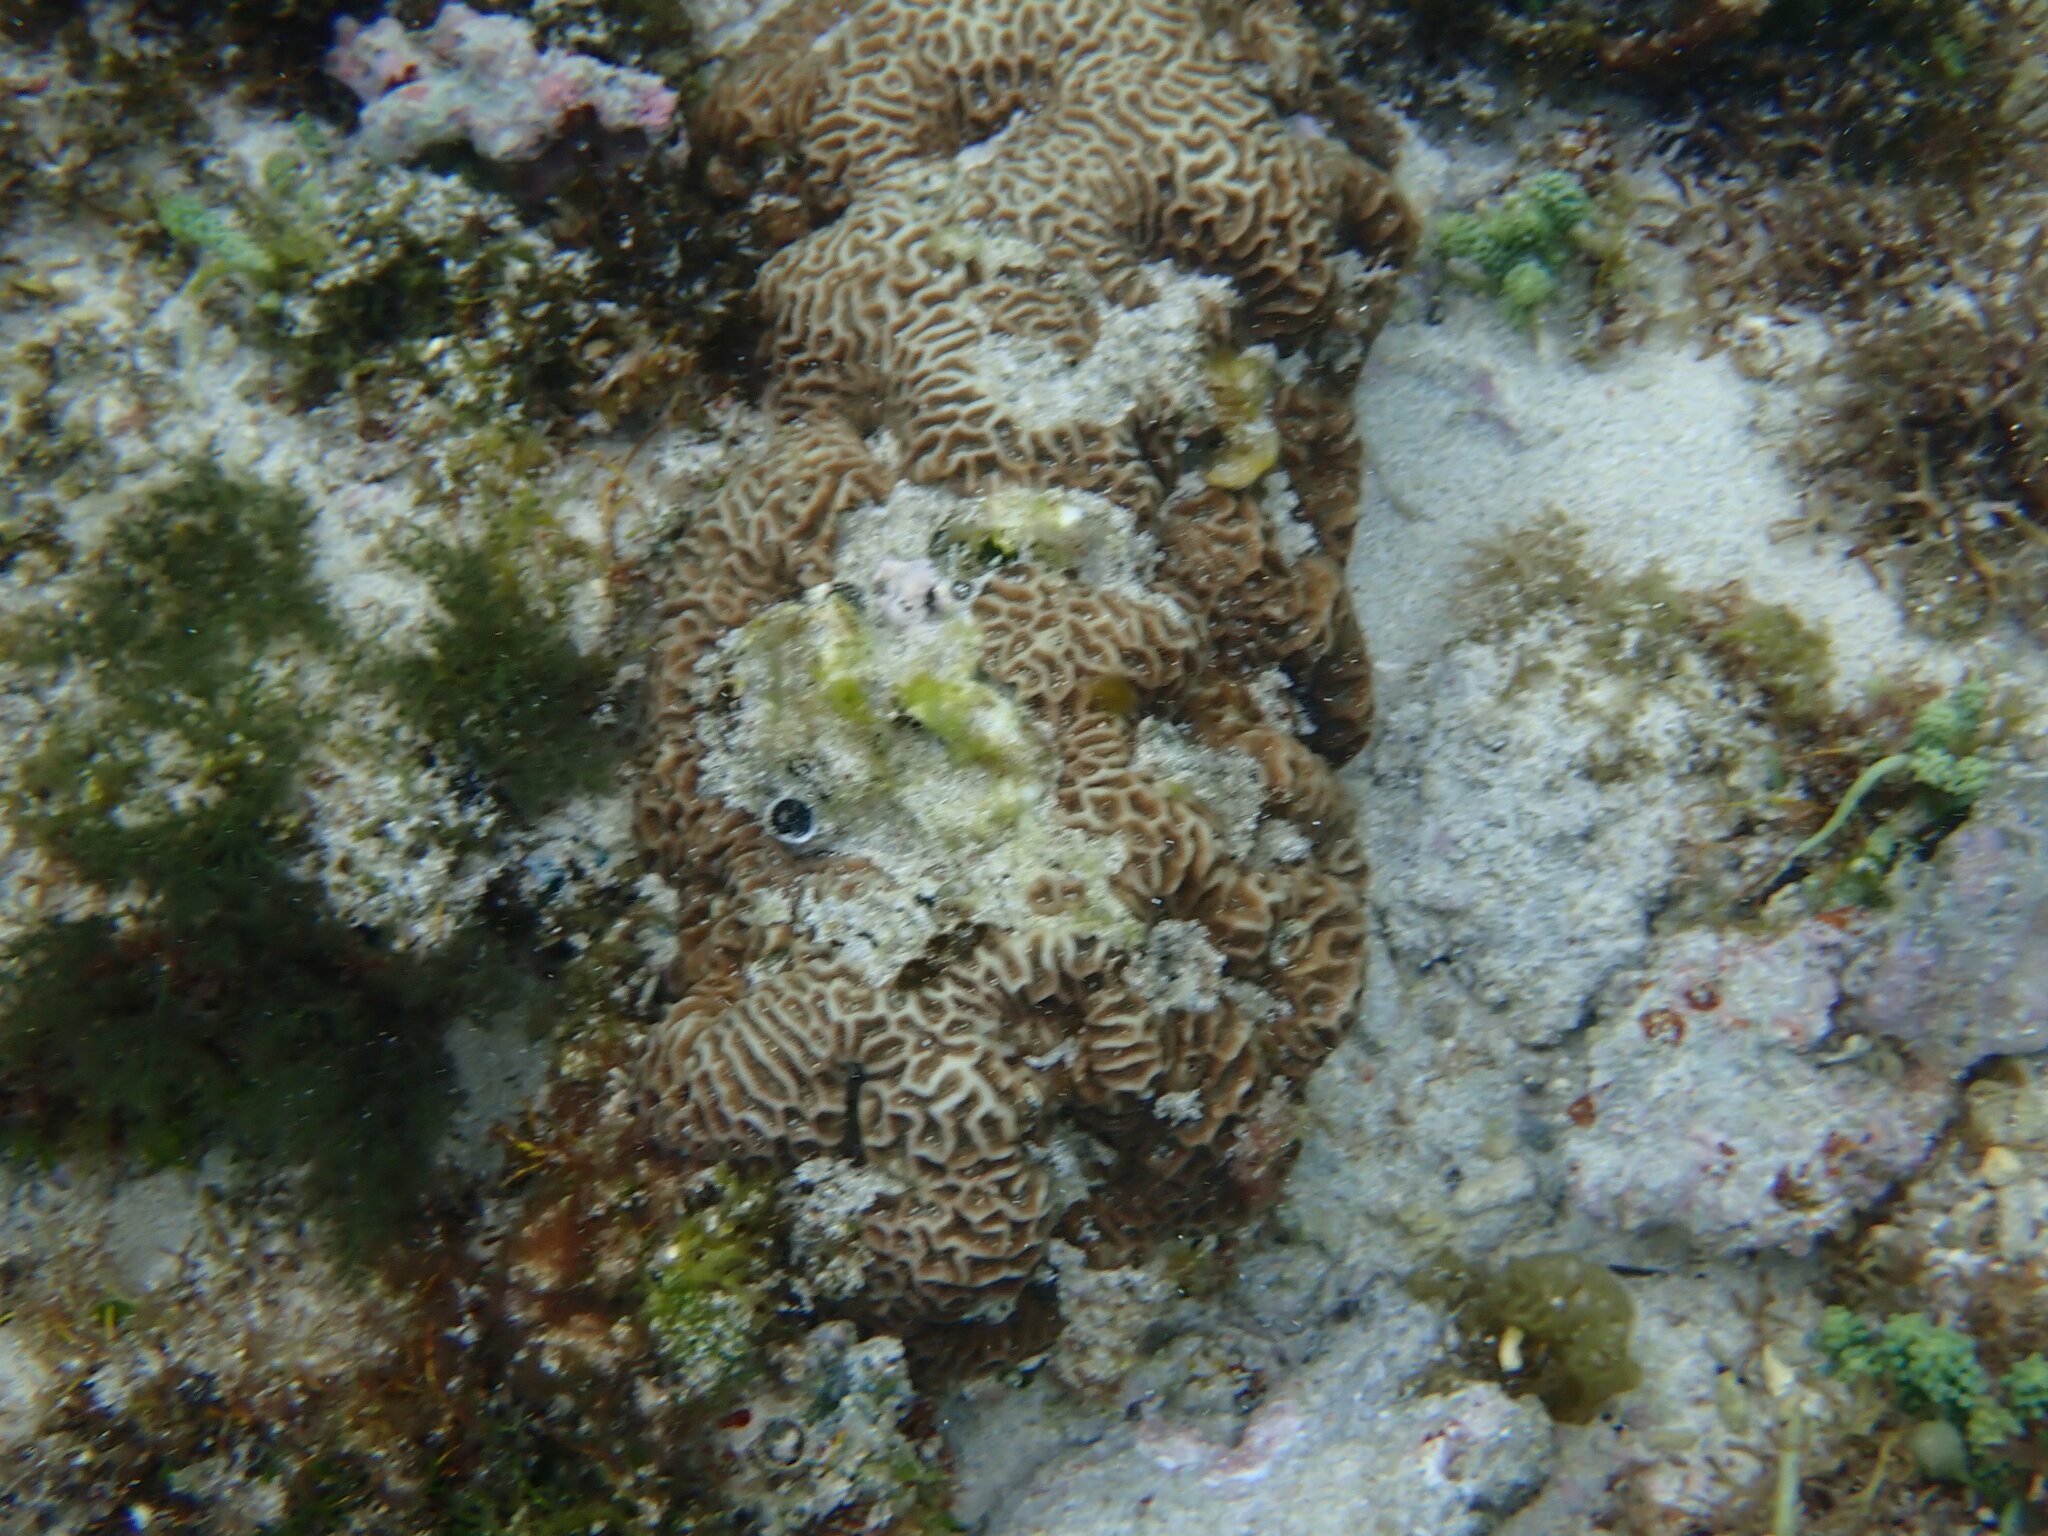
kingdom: Animalia
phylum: Cnidaria
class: Anthozoa
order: Scleractinia
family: Merulinidae
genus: Paragoniastrea
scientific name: Paragoniastrea australensis
